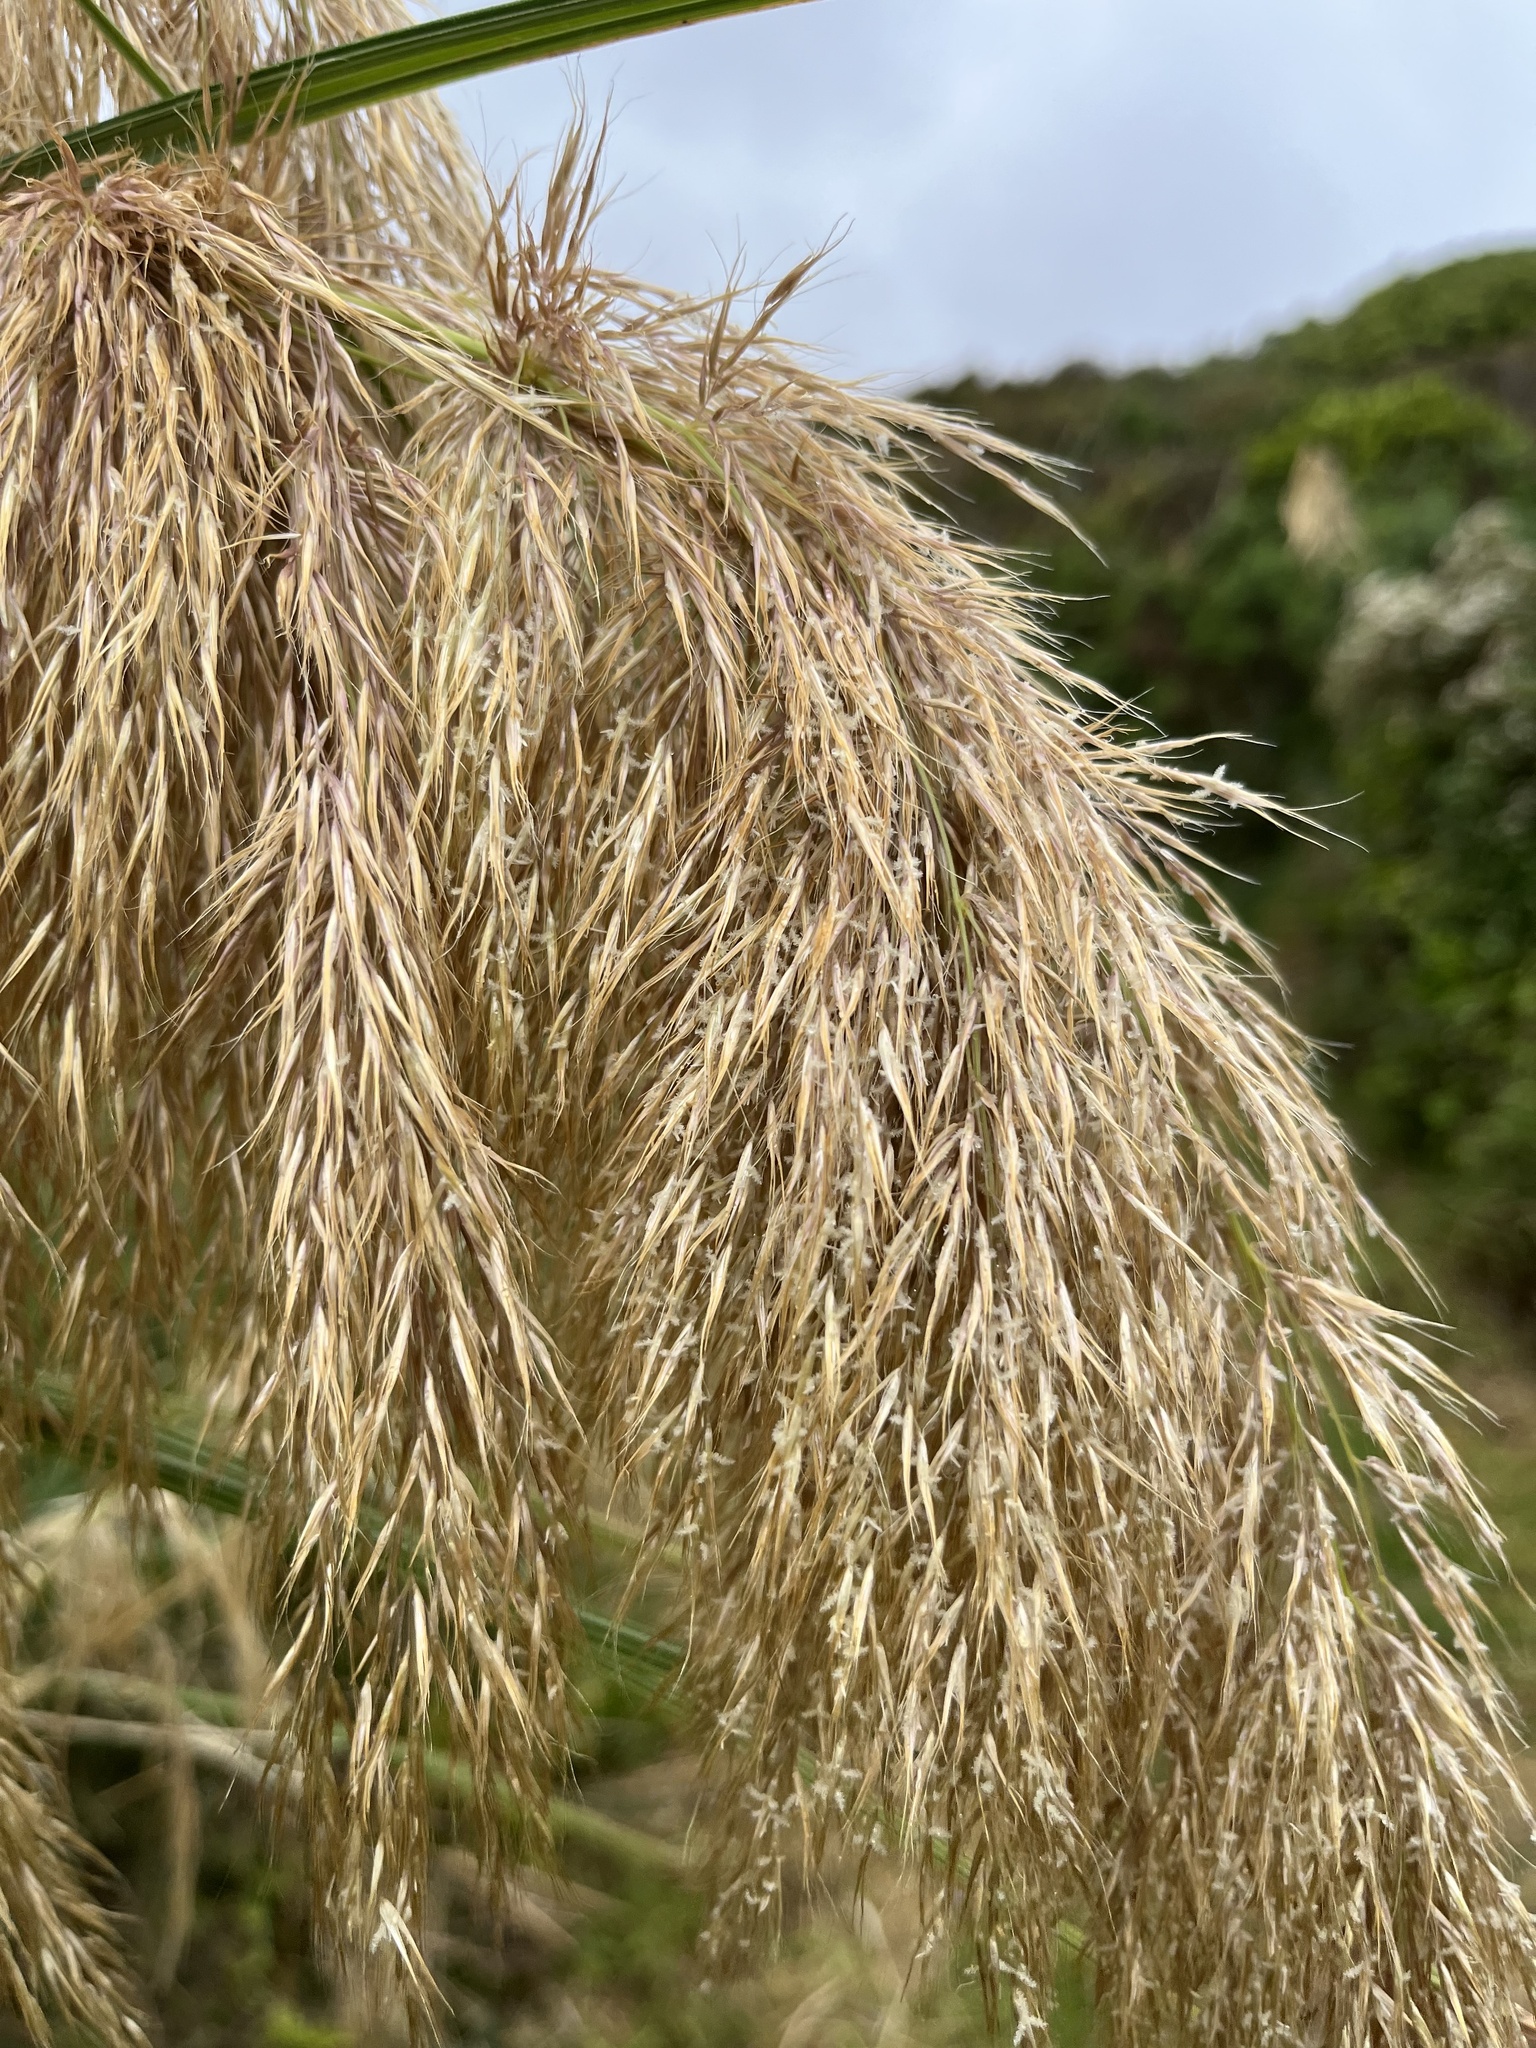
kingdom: Plantae
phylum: Tracheophyta
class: Liliopsida
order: Poales
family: Poaceae
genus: Austroderia
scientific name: Austroderia fulvida
